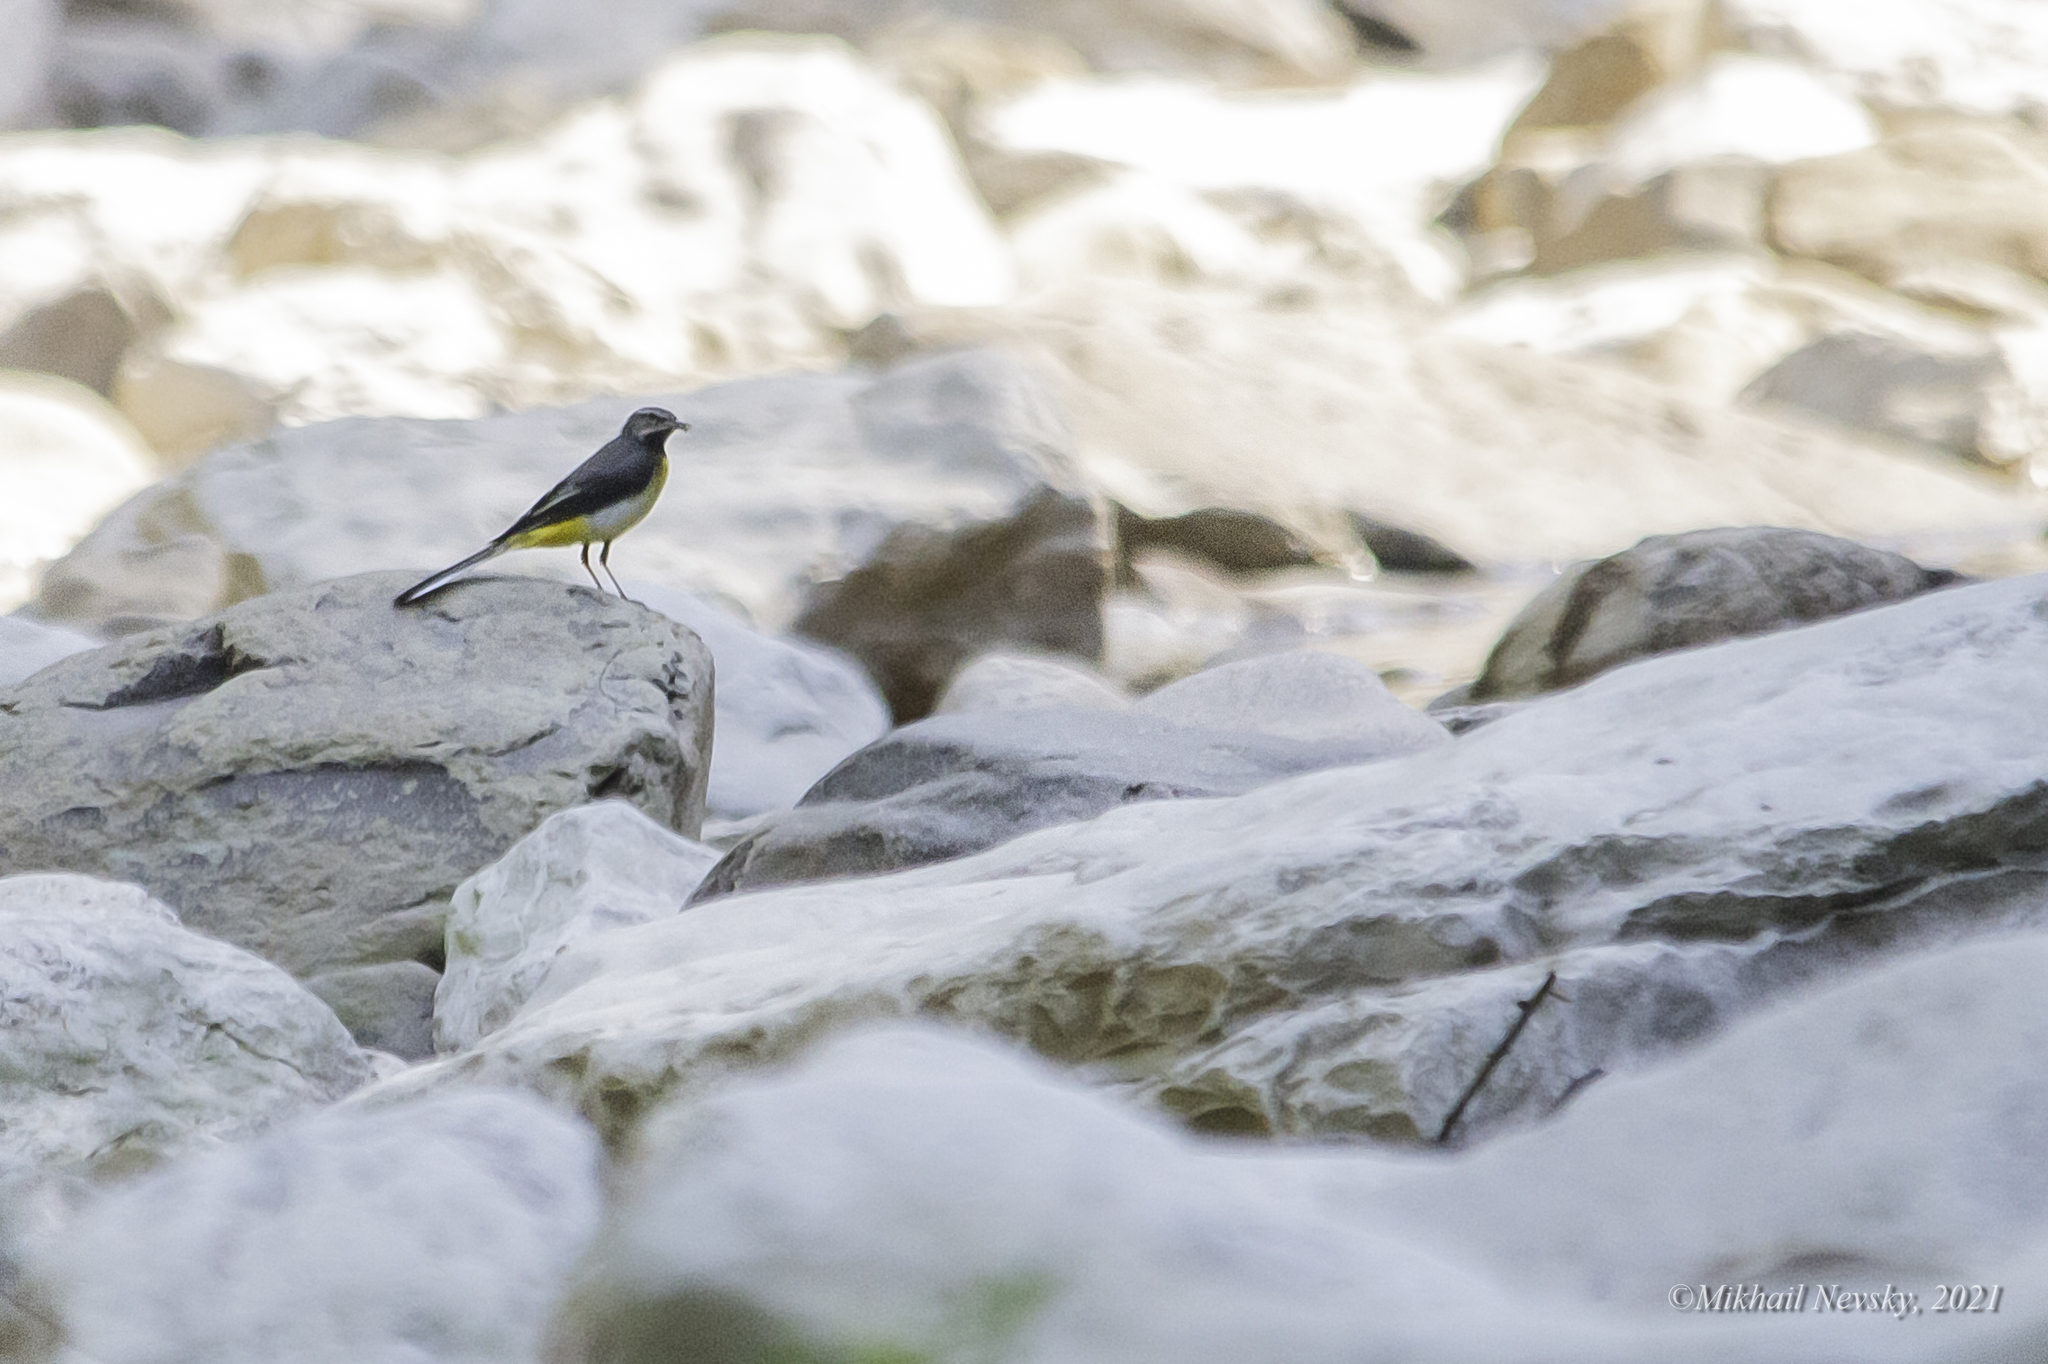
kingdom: Animalia
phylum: Chordata
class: Aves
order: Passeriformes
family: Motacillidae
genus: Motacilla
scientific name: Motacilla cinerea
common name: Grey wagtail
